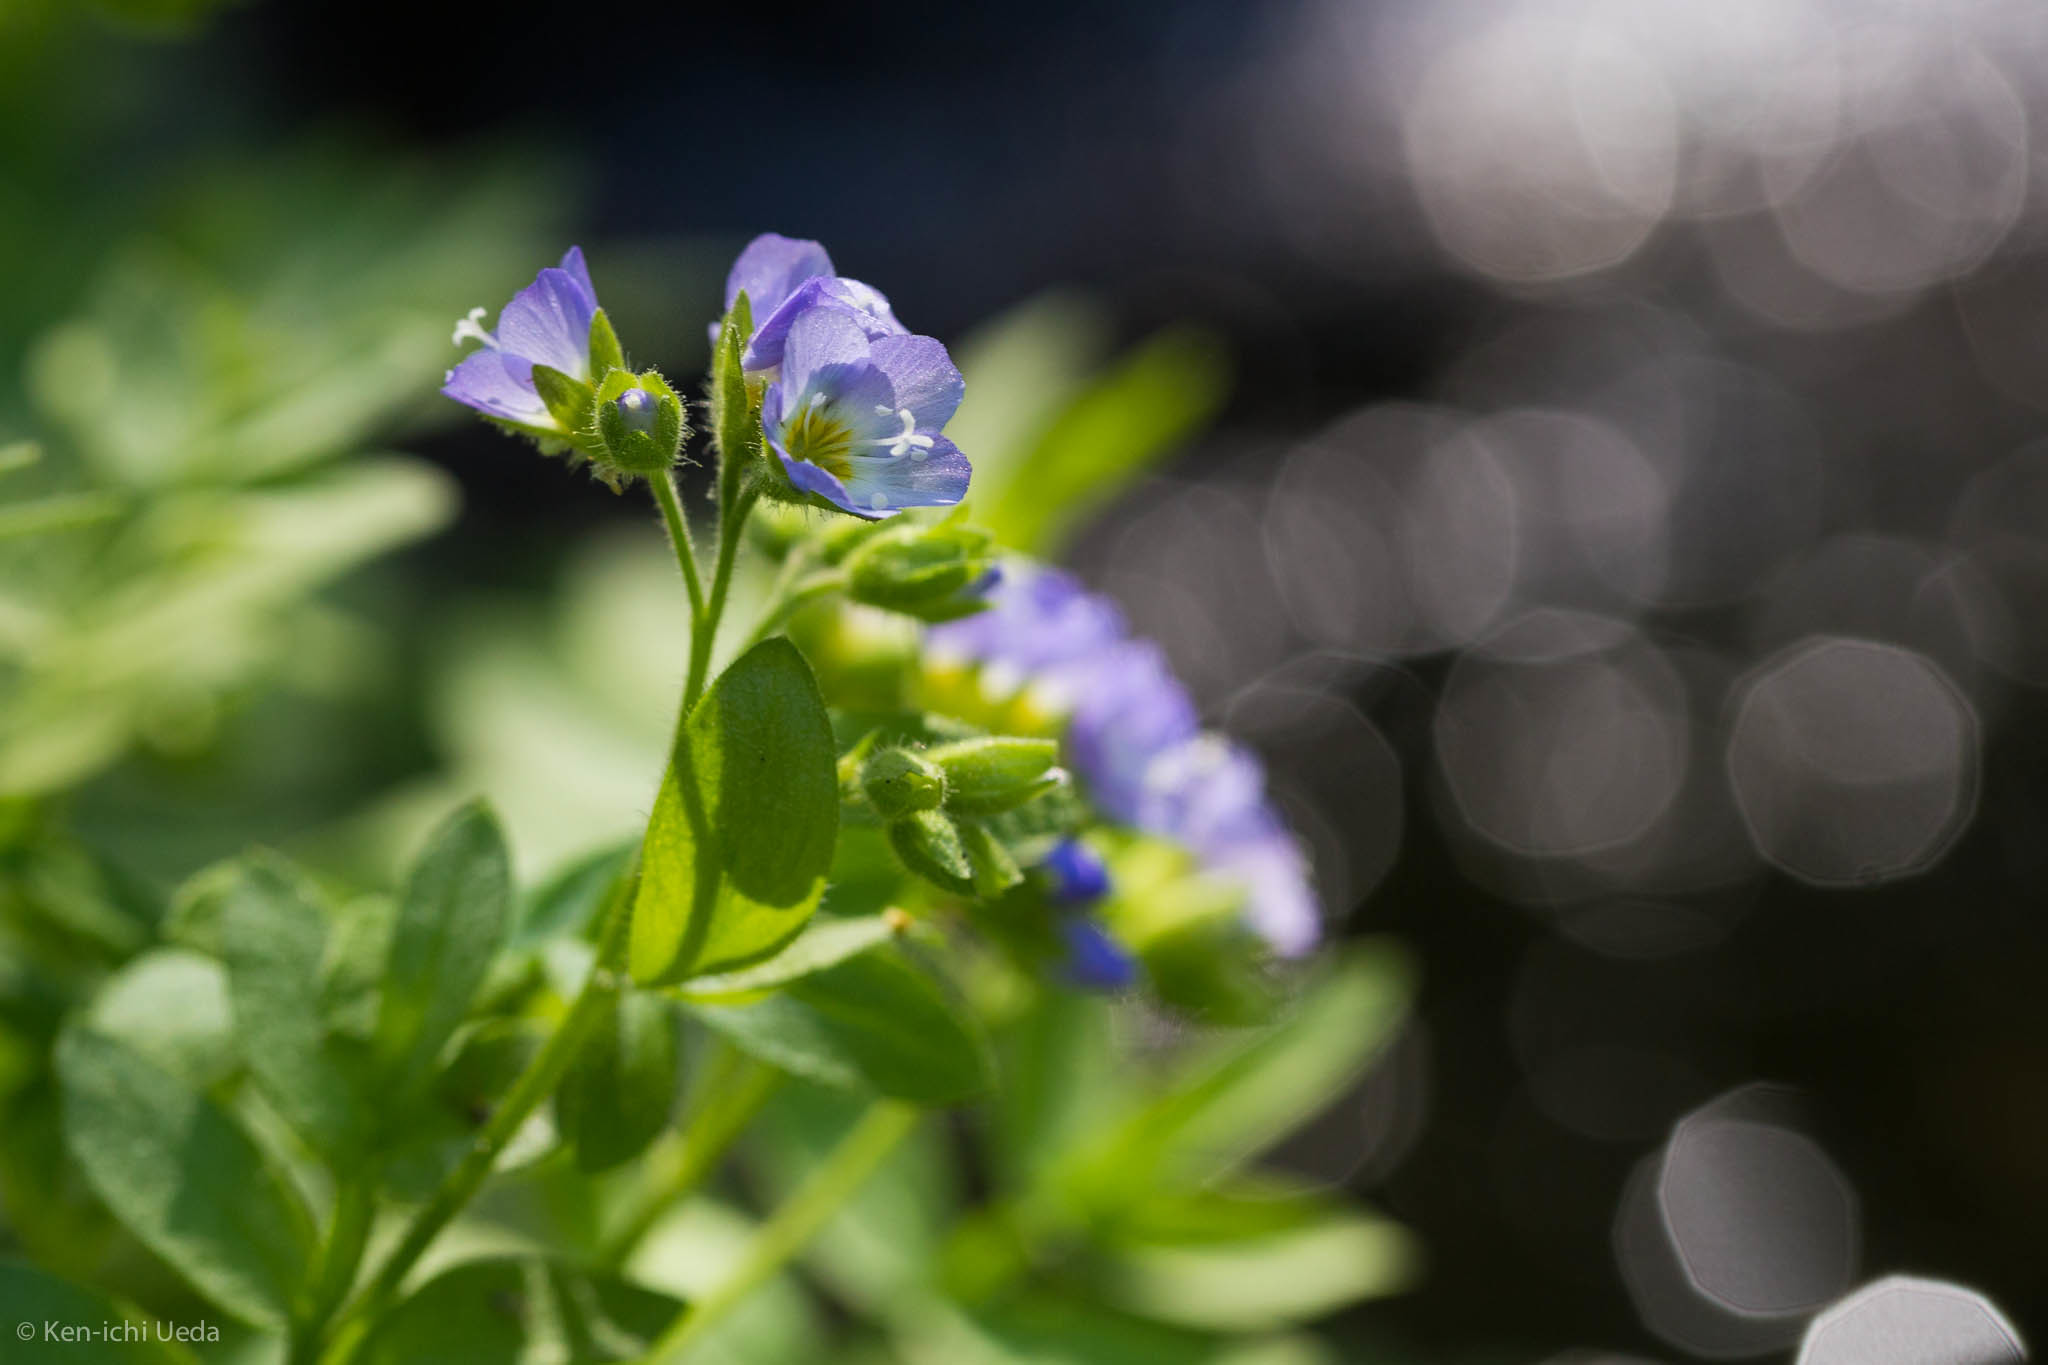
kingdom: Plantae
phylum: Tracheophyta
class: Magnoliopsida
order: Ericales
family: Polemoniaceae
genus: Polemonium
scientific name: Polemonium californicum
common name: California jacob's ladder
